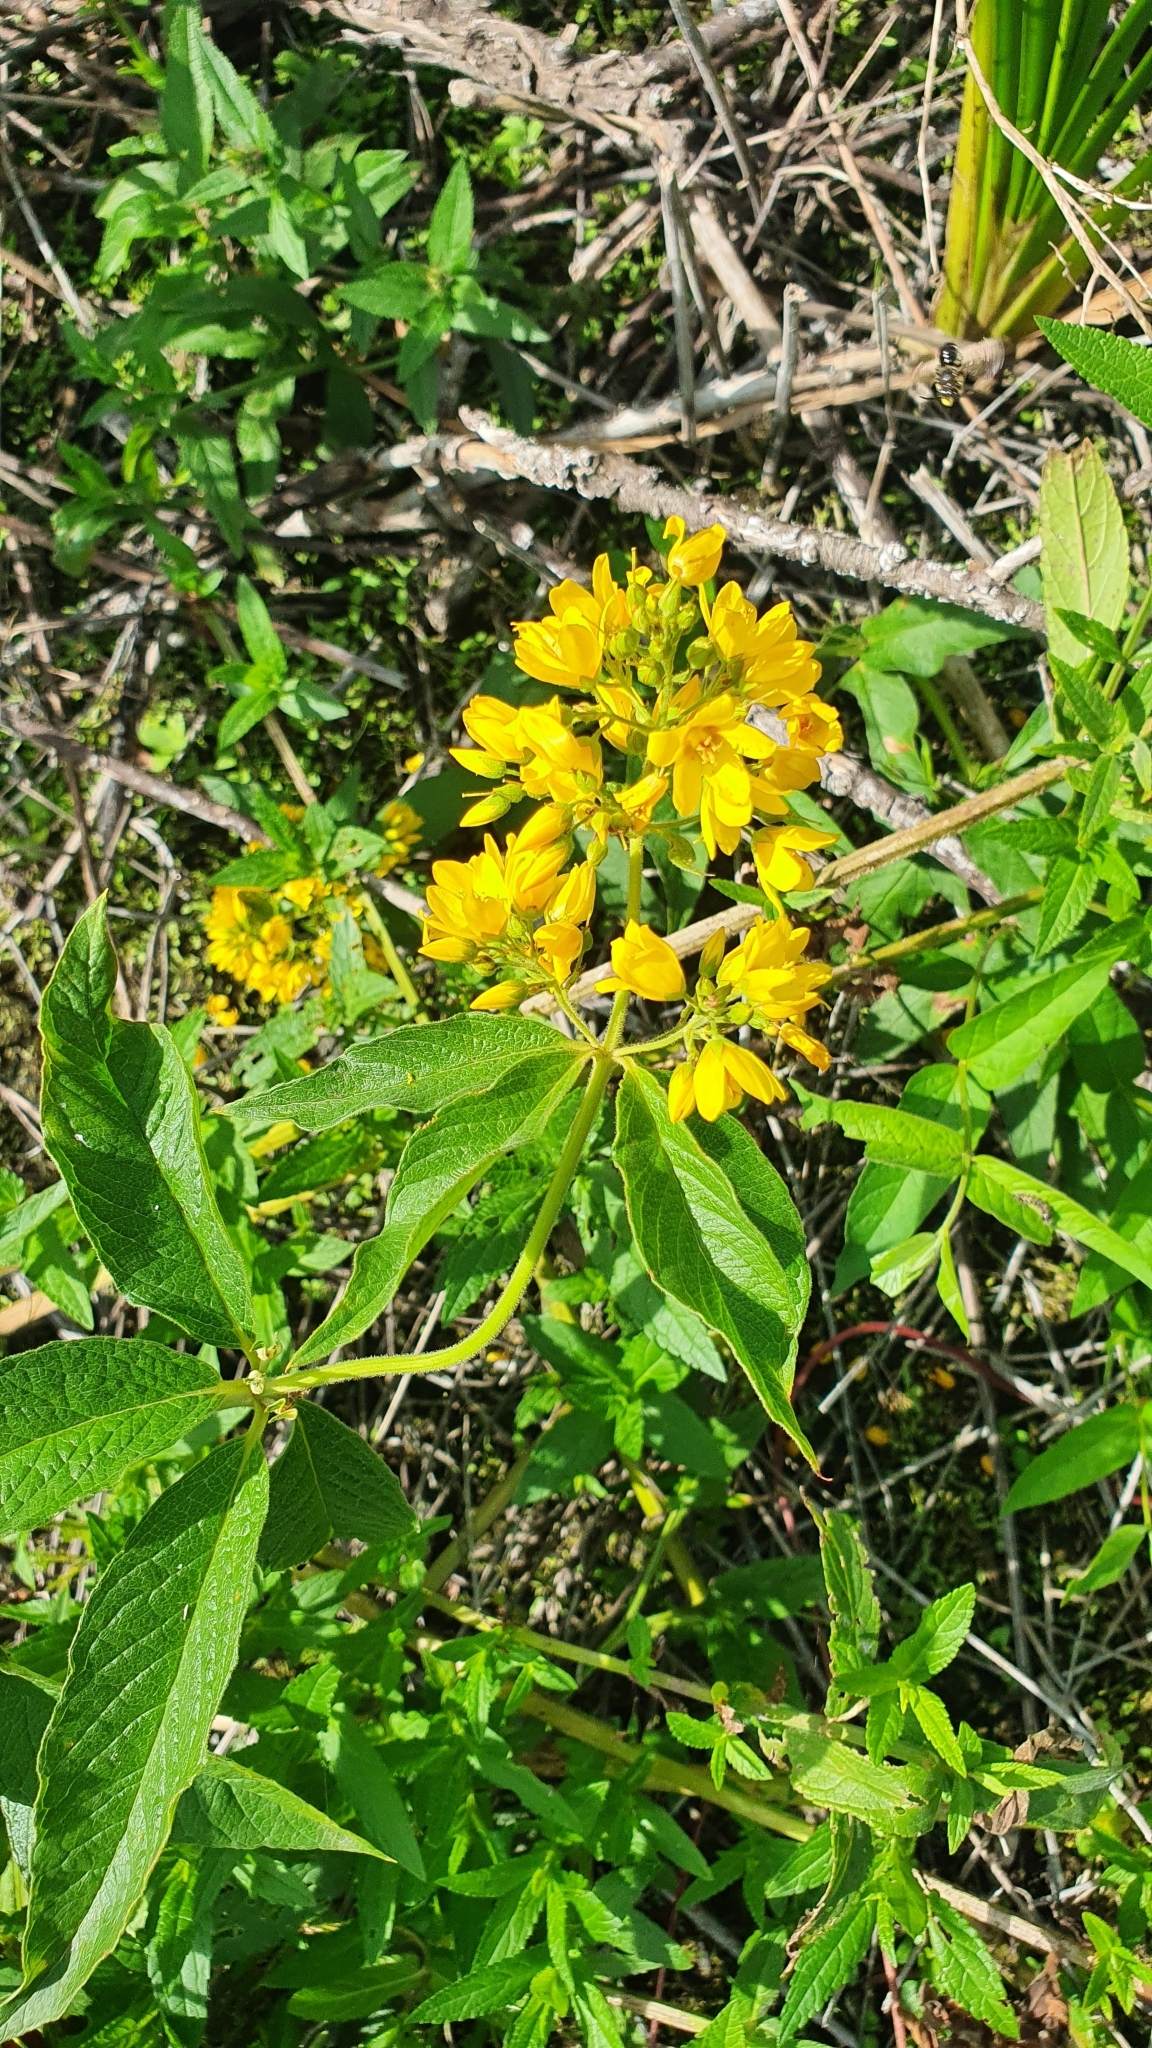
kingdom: Plantae
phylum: Tracheophyta
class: Magnoliopsida
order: Ericales
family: Primulaceae
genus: Lysimachia
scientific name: Lysimachia vulgaris
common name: Yellow loosestrife
